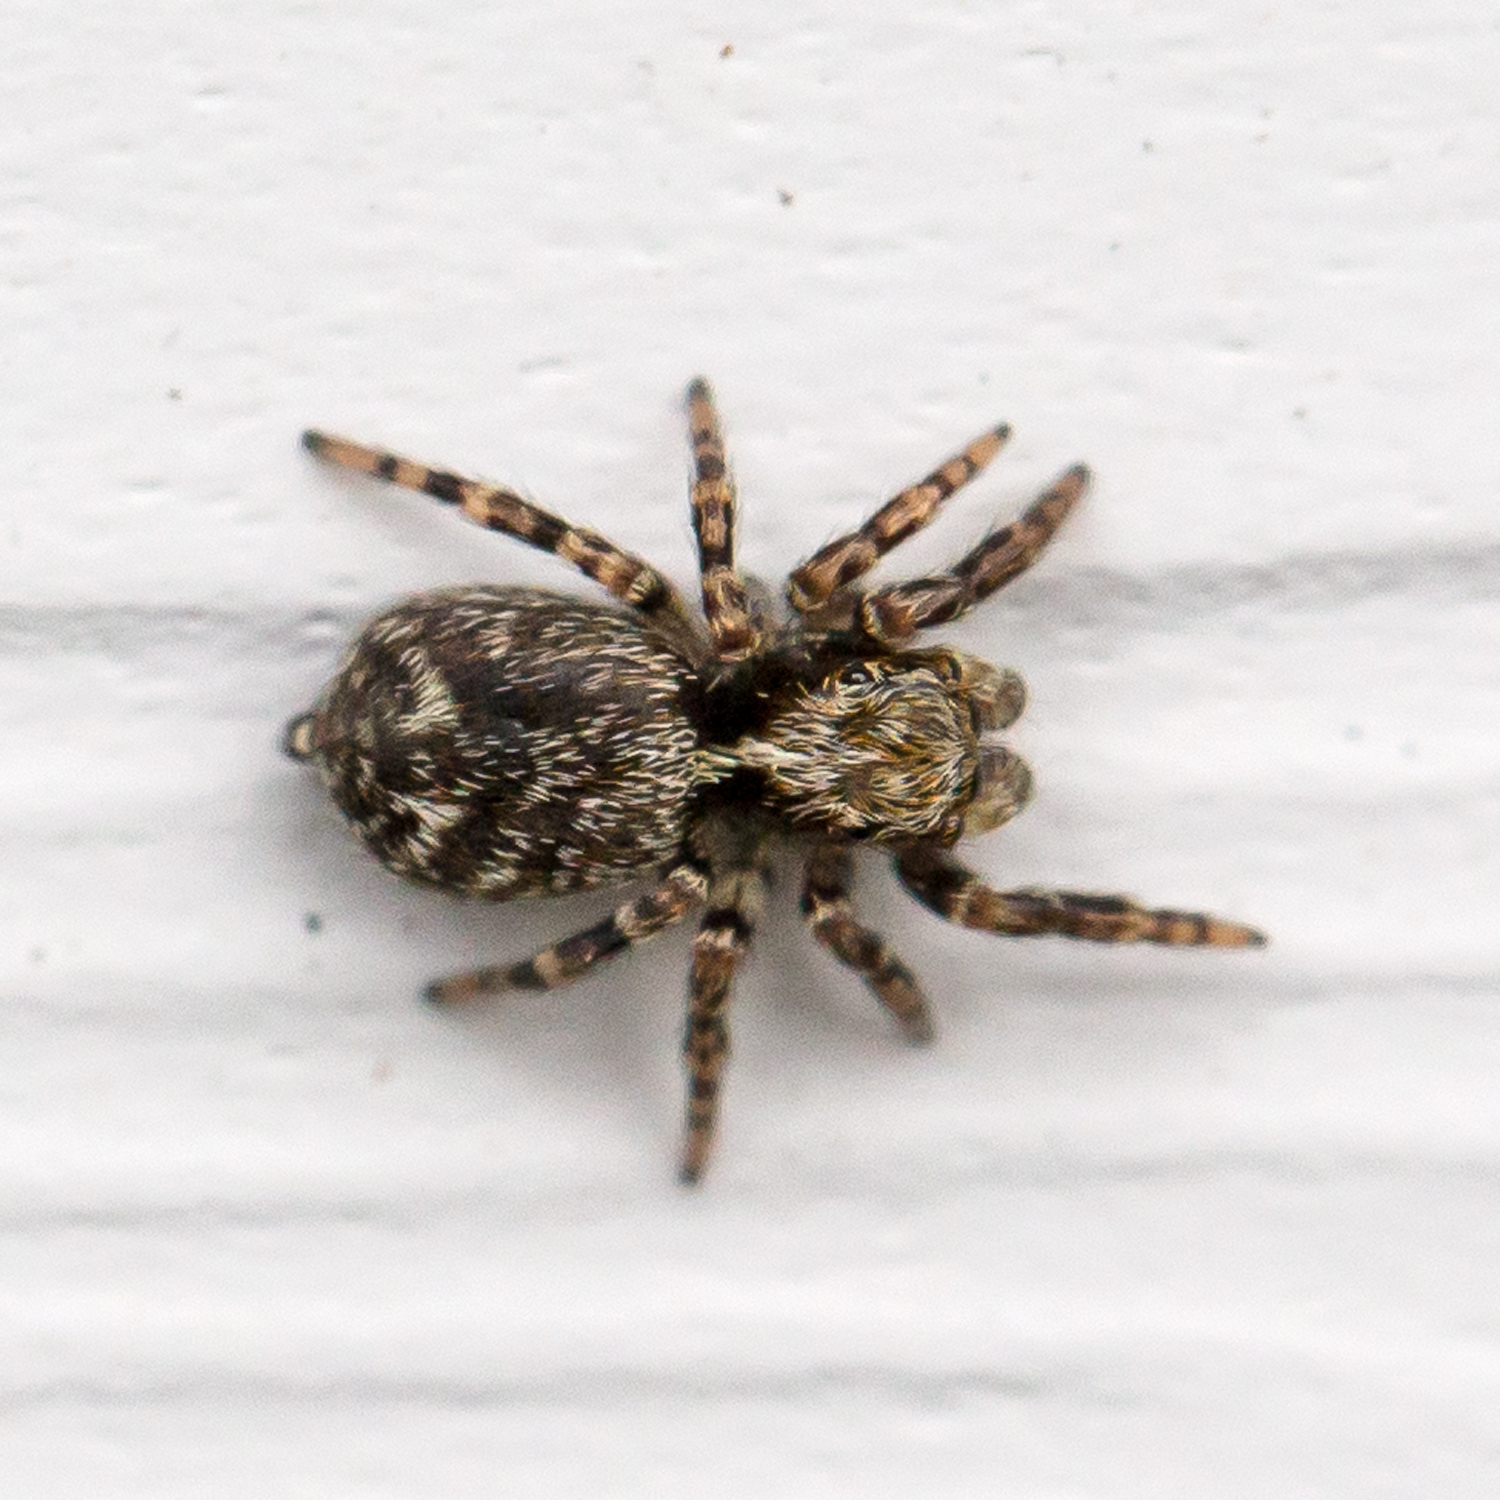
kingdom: Animalia
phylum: Arthropoda
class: Arachnida
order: Araneae
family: Salticidae
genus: Pseudeuophrys
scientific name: Pseudeuophrys erratica
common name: Jumping spider
